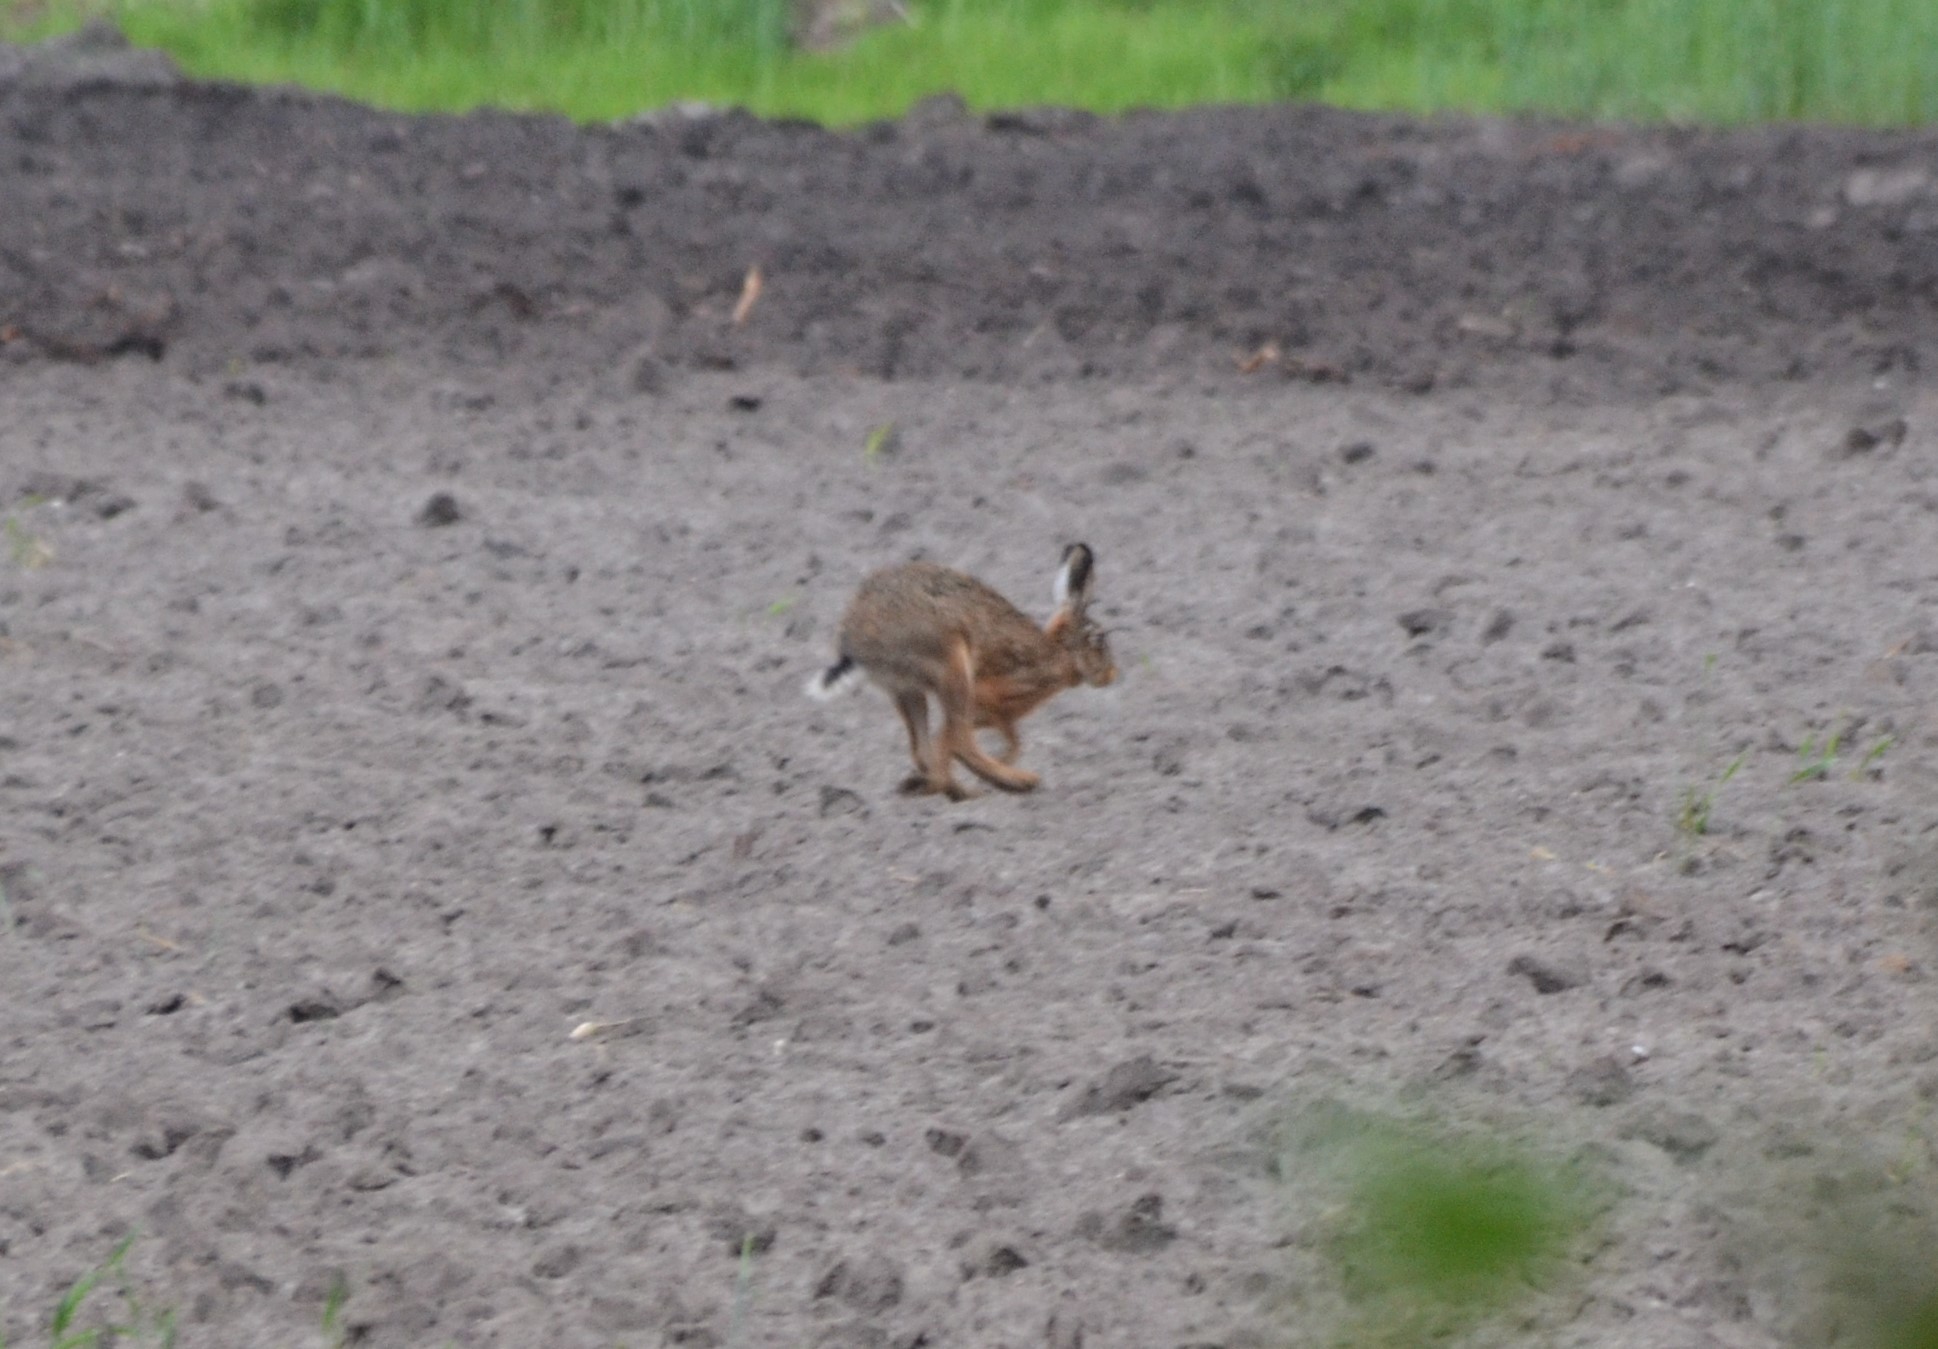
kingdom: Animalia
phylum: Chordata
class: Mammalia
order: Lagomorpha
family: Leporidae
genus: Lepus
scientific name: Lepus europaeus
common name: European hare
